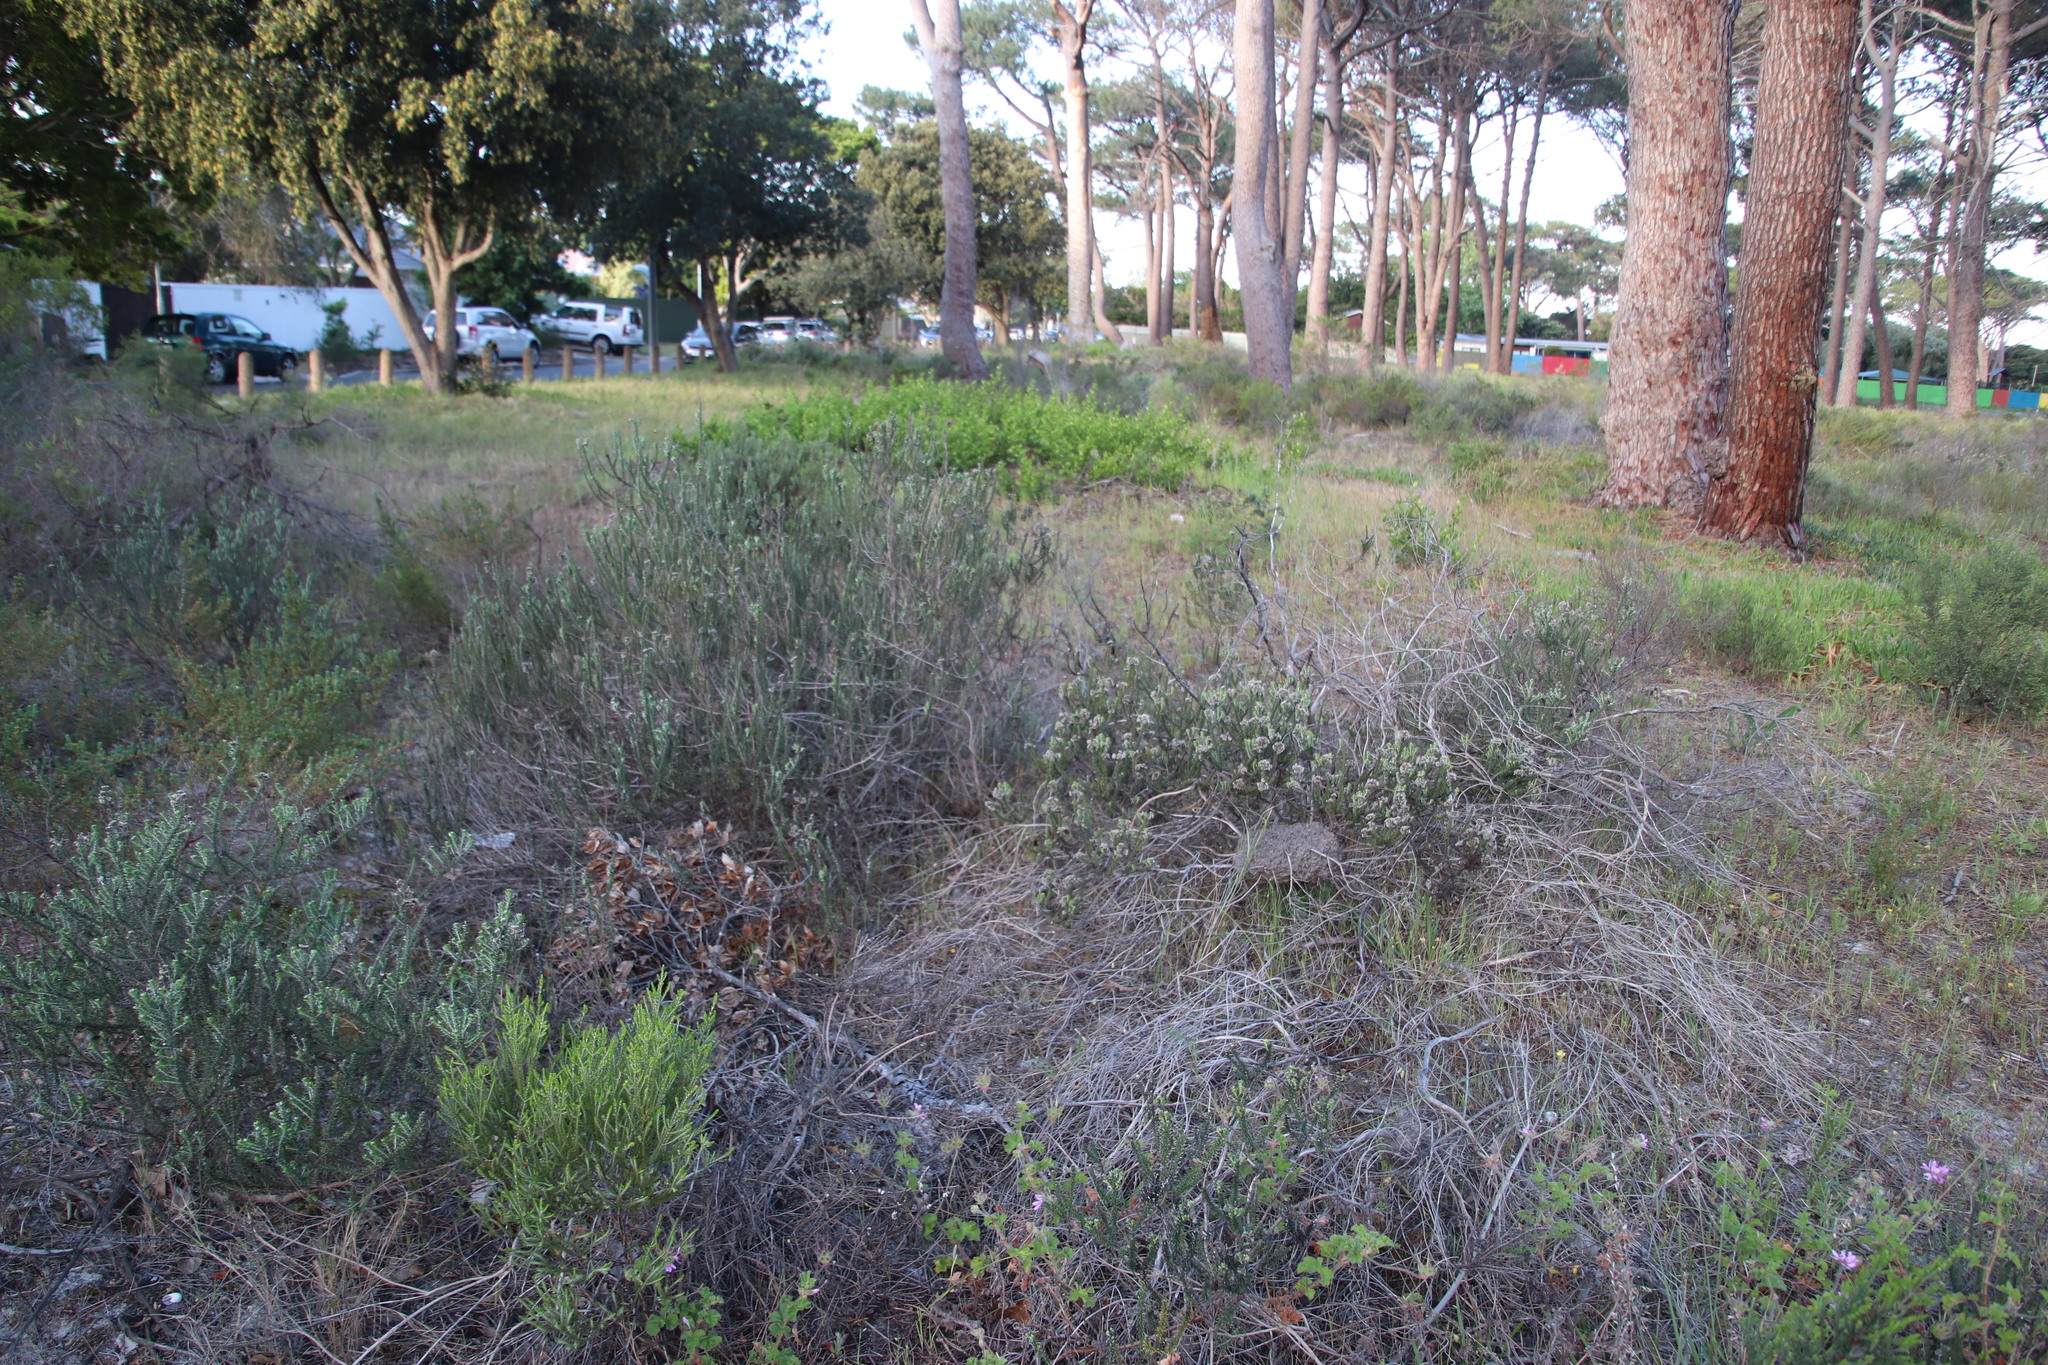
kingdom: Plantae
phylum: Tracheophyta
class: Magnoliopsida
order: Asterales
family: Asteraceae
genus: Metalasia
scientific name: Metalasia densa
